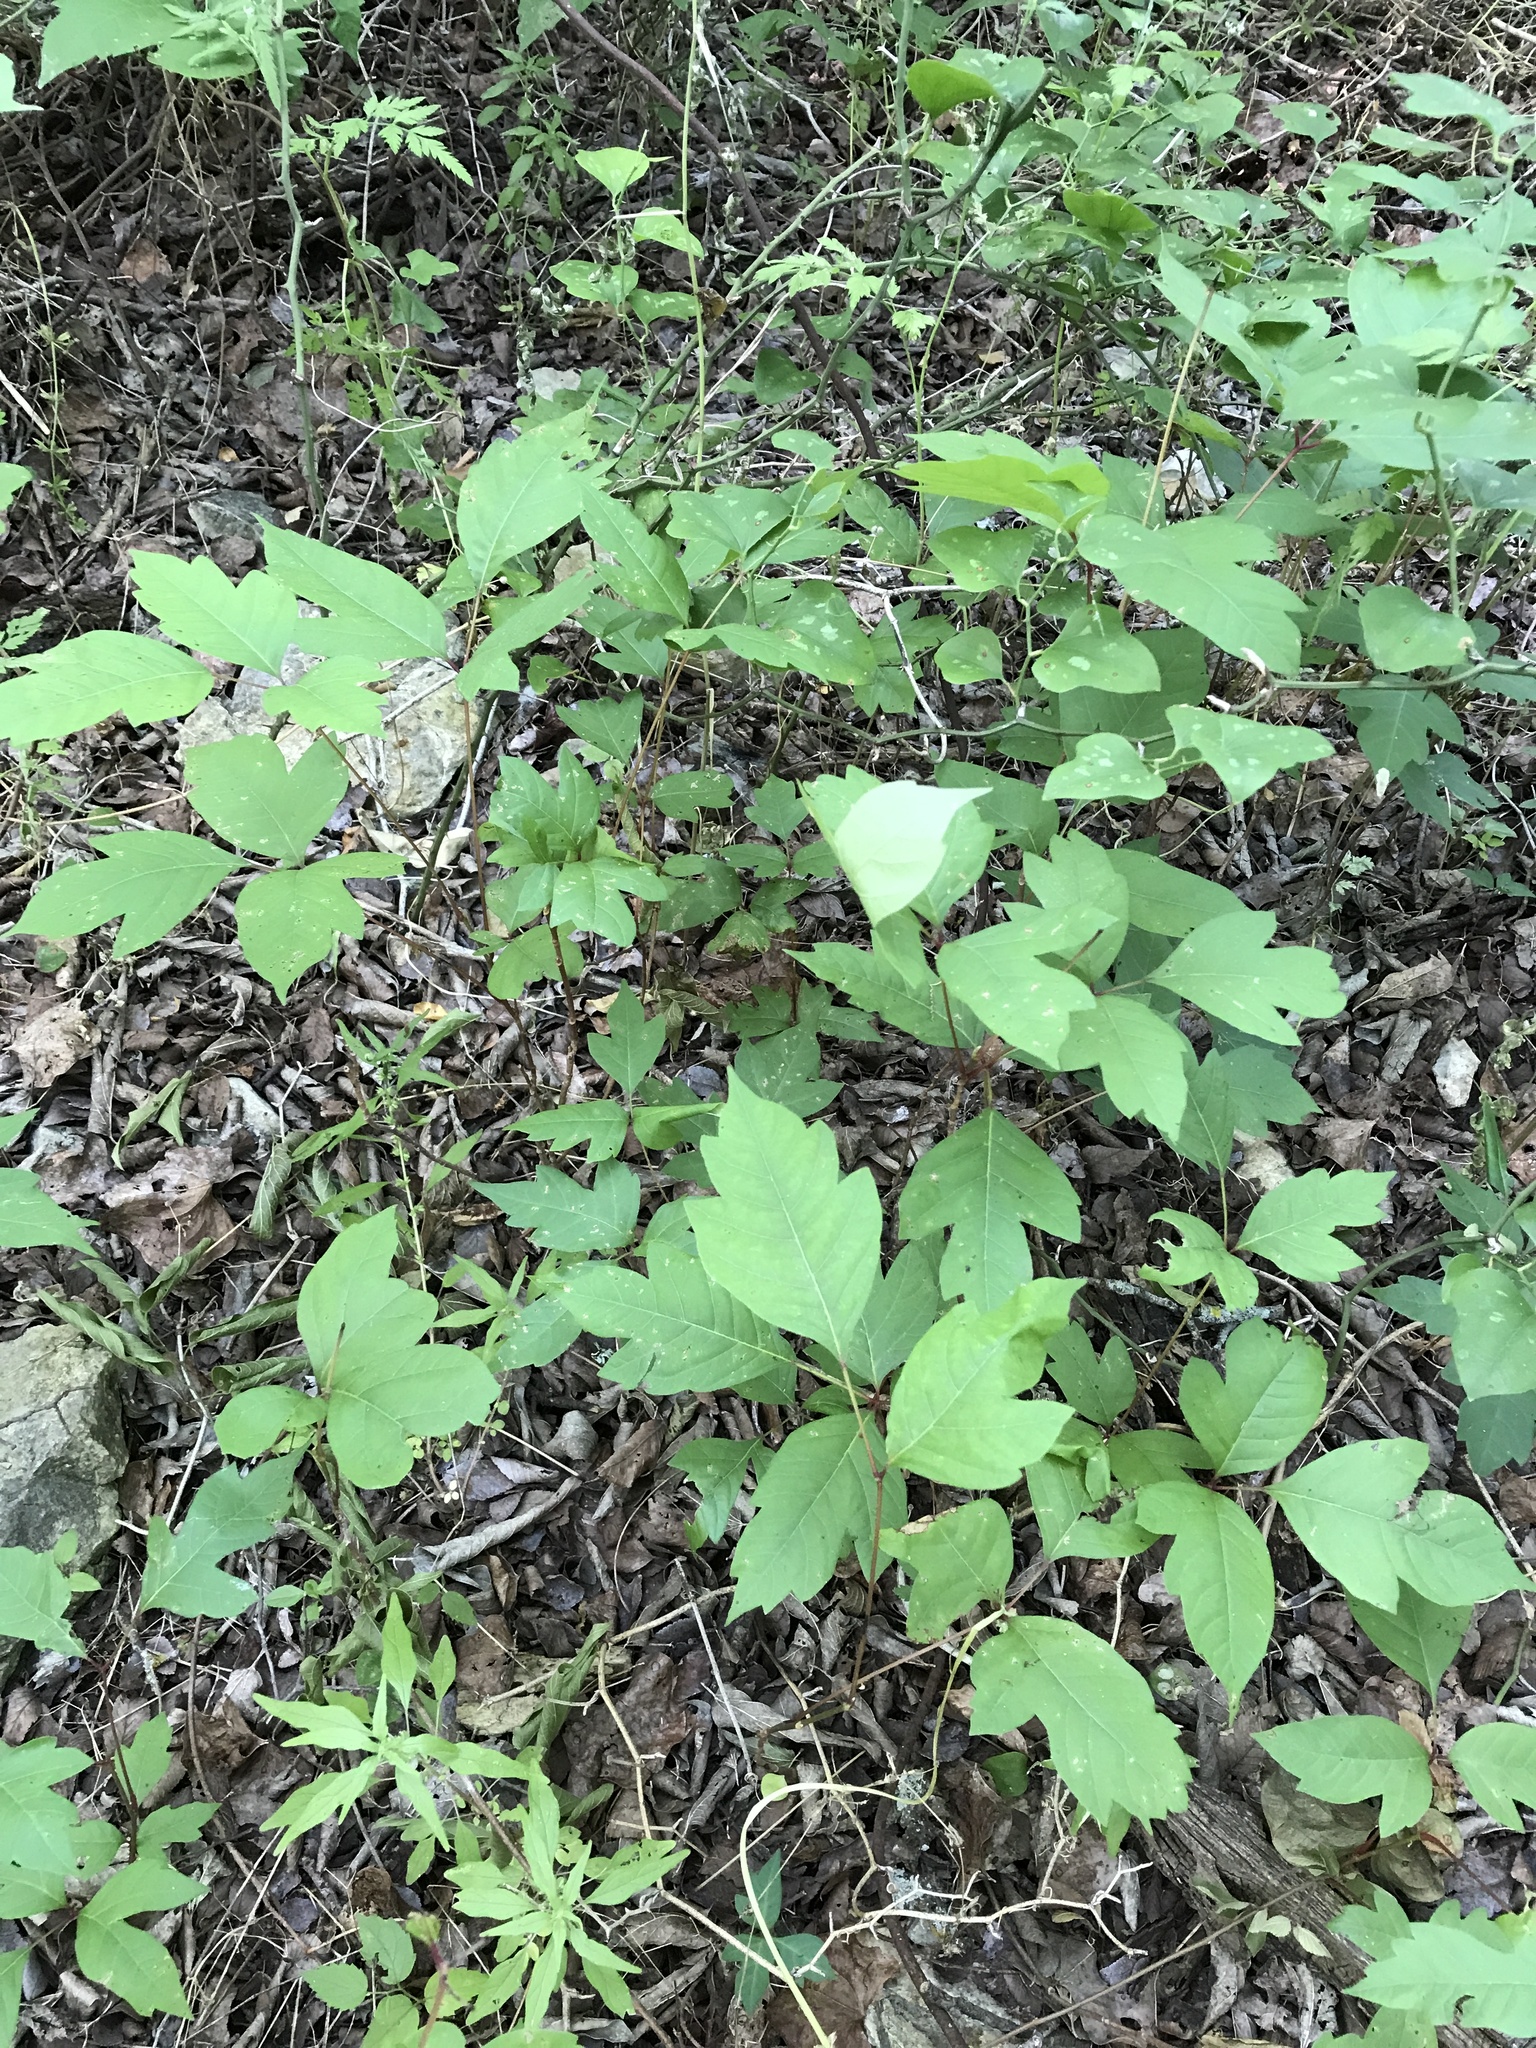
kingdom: Plantae
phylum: Tracheophyta
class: Magnoliopsida
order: Sapindales
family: Anacardiaceae
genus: Toxicodendron
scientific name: Toxicodendron radicans
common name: Poison ivy
